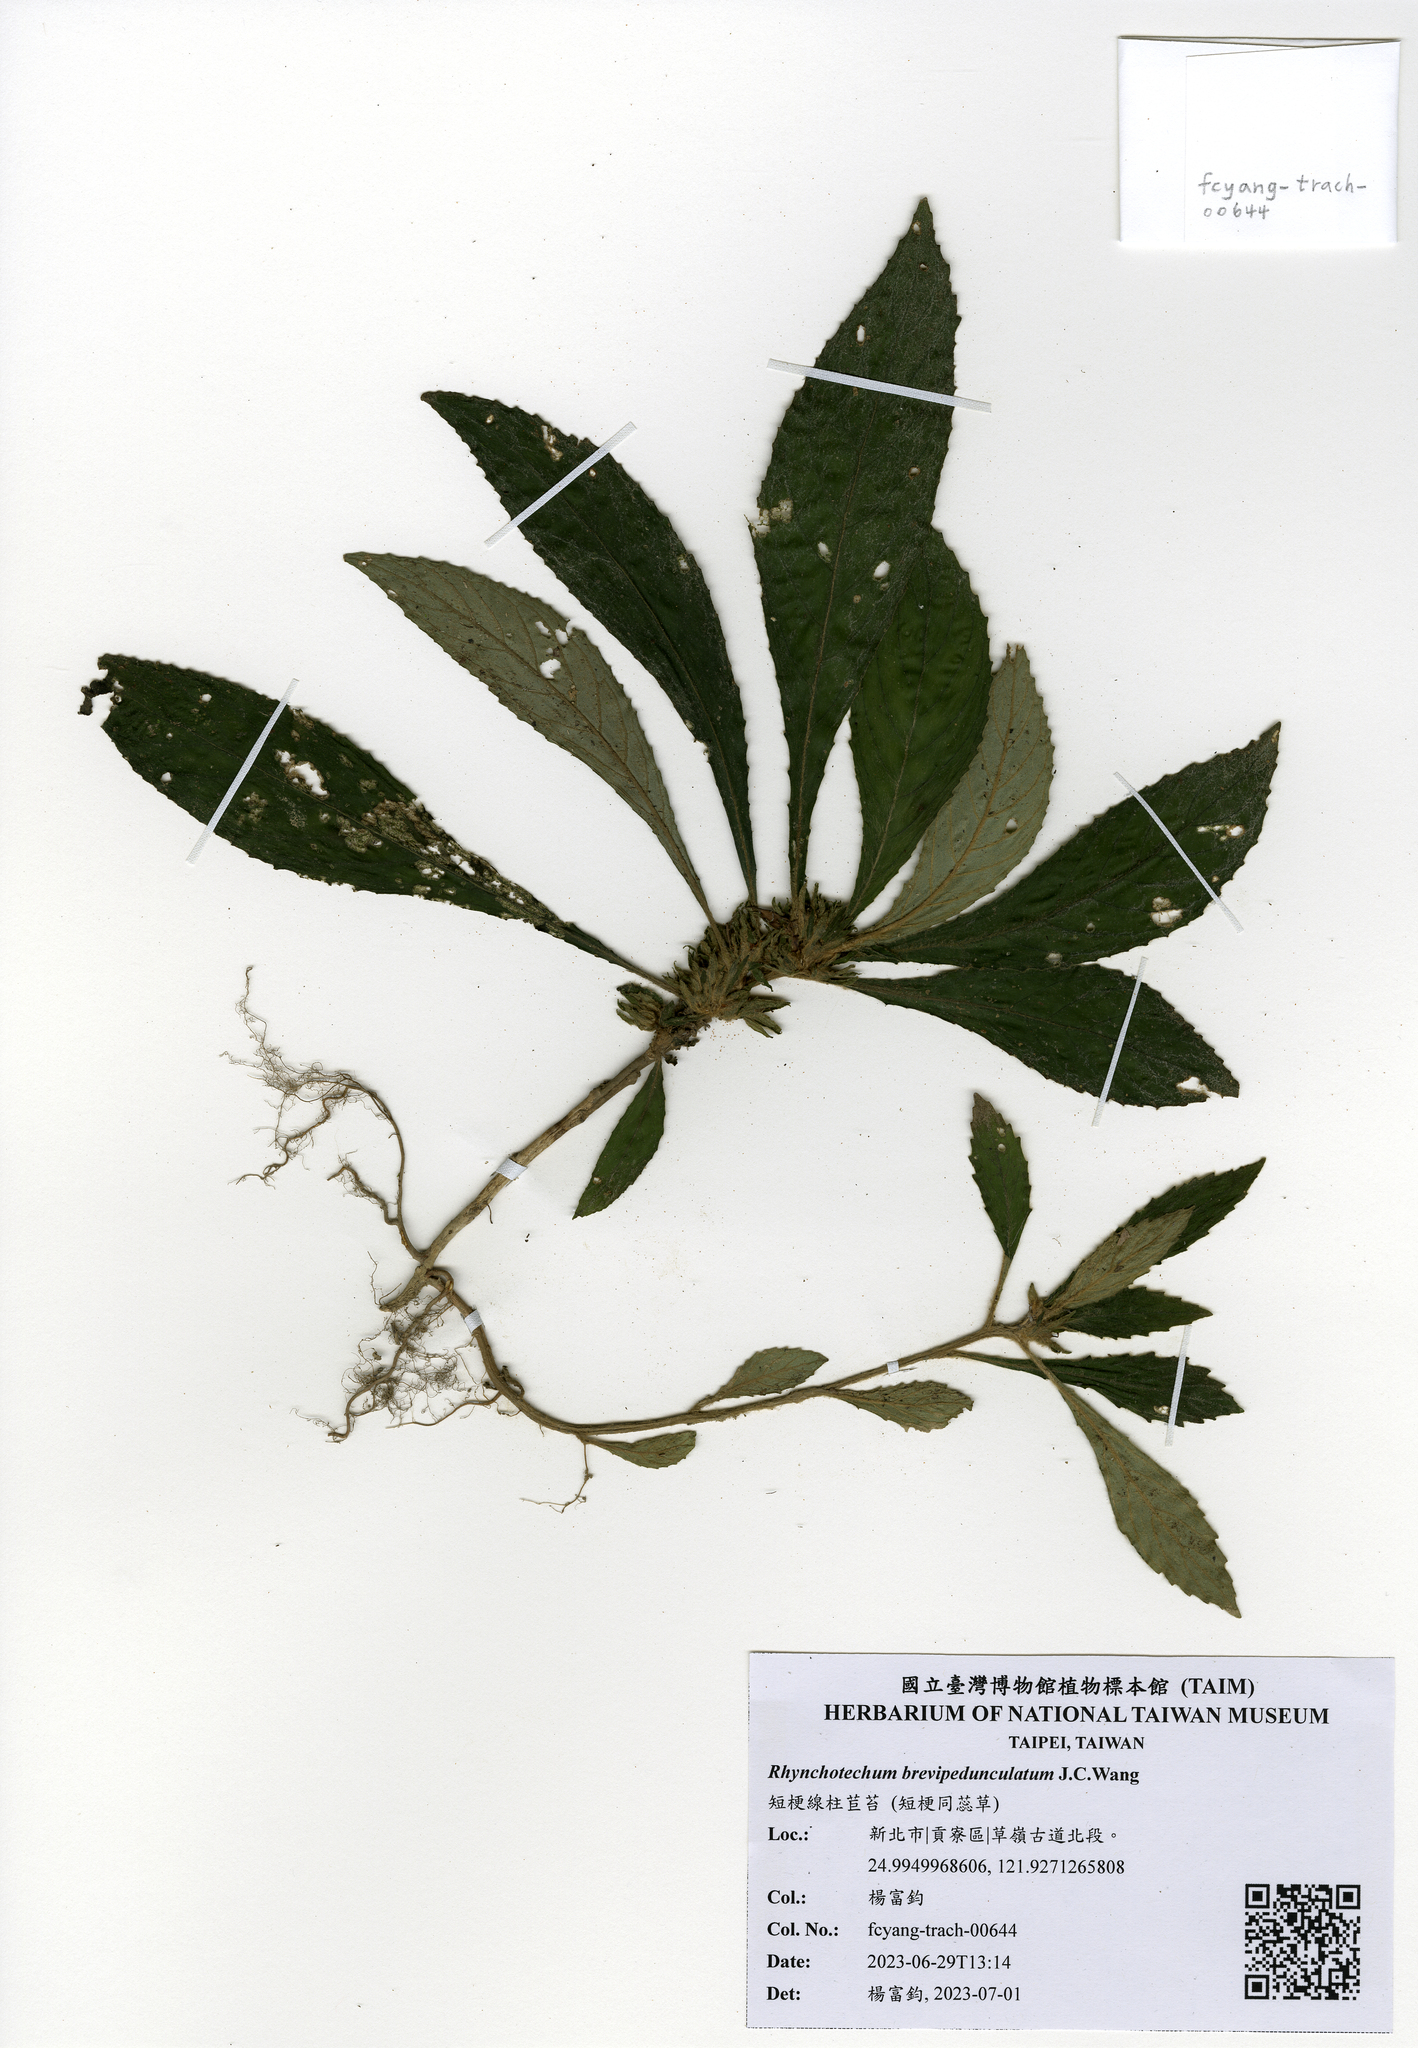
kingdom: Plantae
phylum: Tracheophyta
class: Magnoliopsida
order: Lamiales
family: Gesneriaceae
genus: Rhynchotechum
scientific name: Rhynchotechum brevipedunculatum
